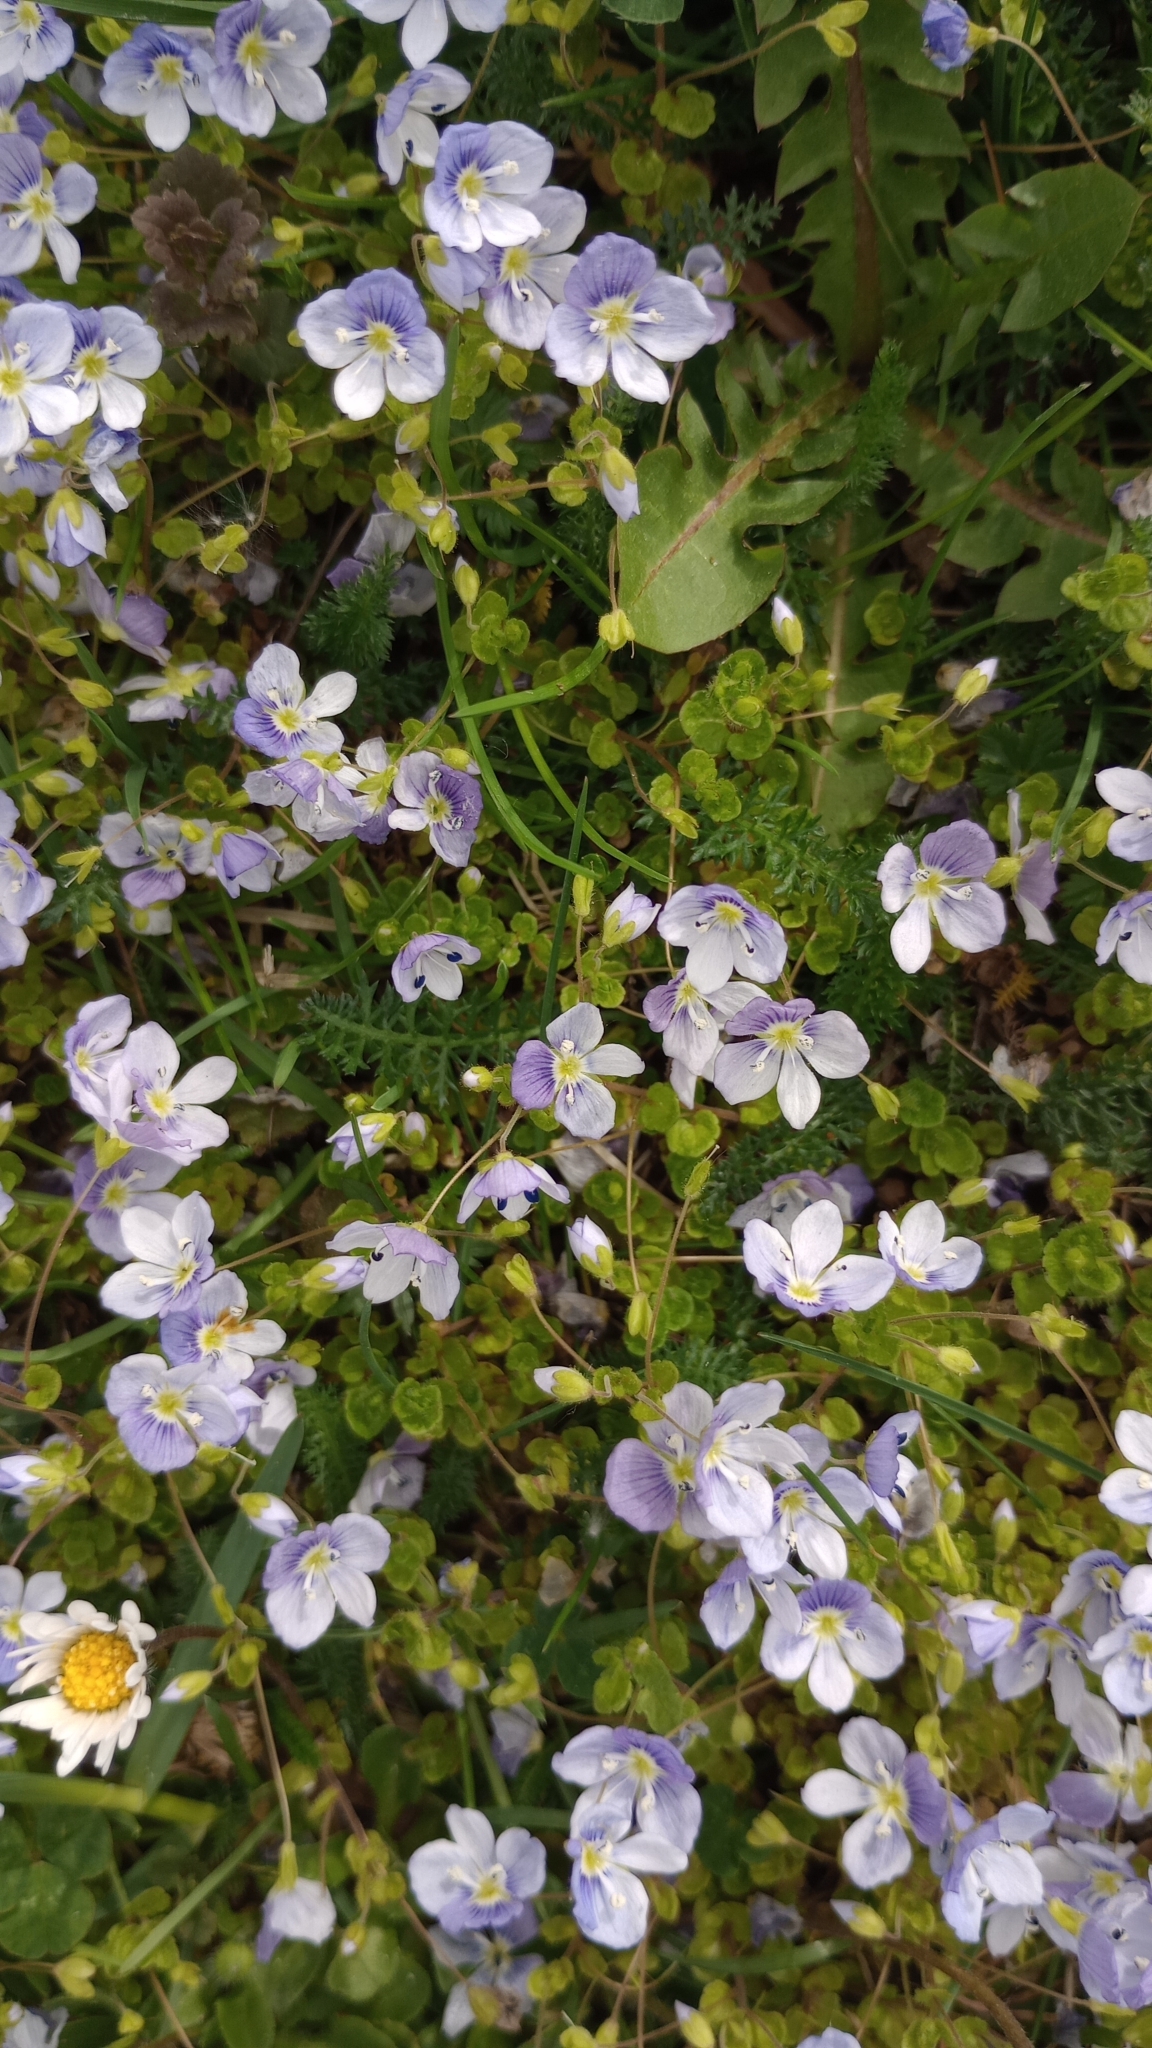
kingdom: Plantae
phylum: Tracheophyta
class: Magnoliopsida
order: Lamiales
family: Plantaginaceae
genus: Veronica
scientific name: Veronica filiformis
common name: Slender speedwell
